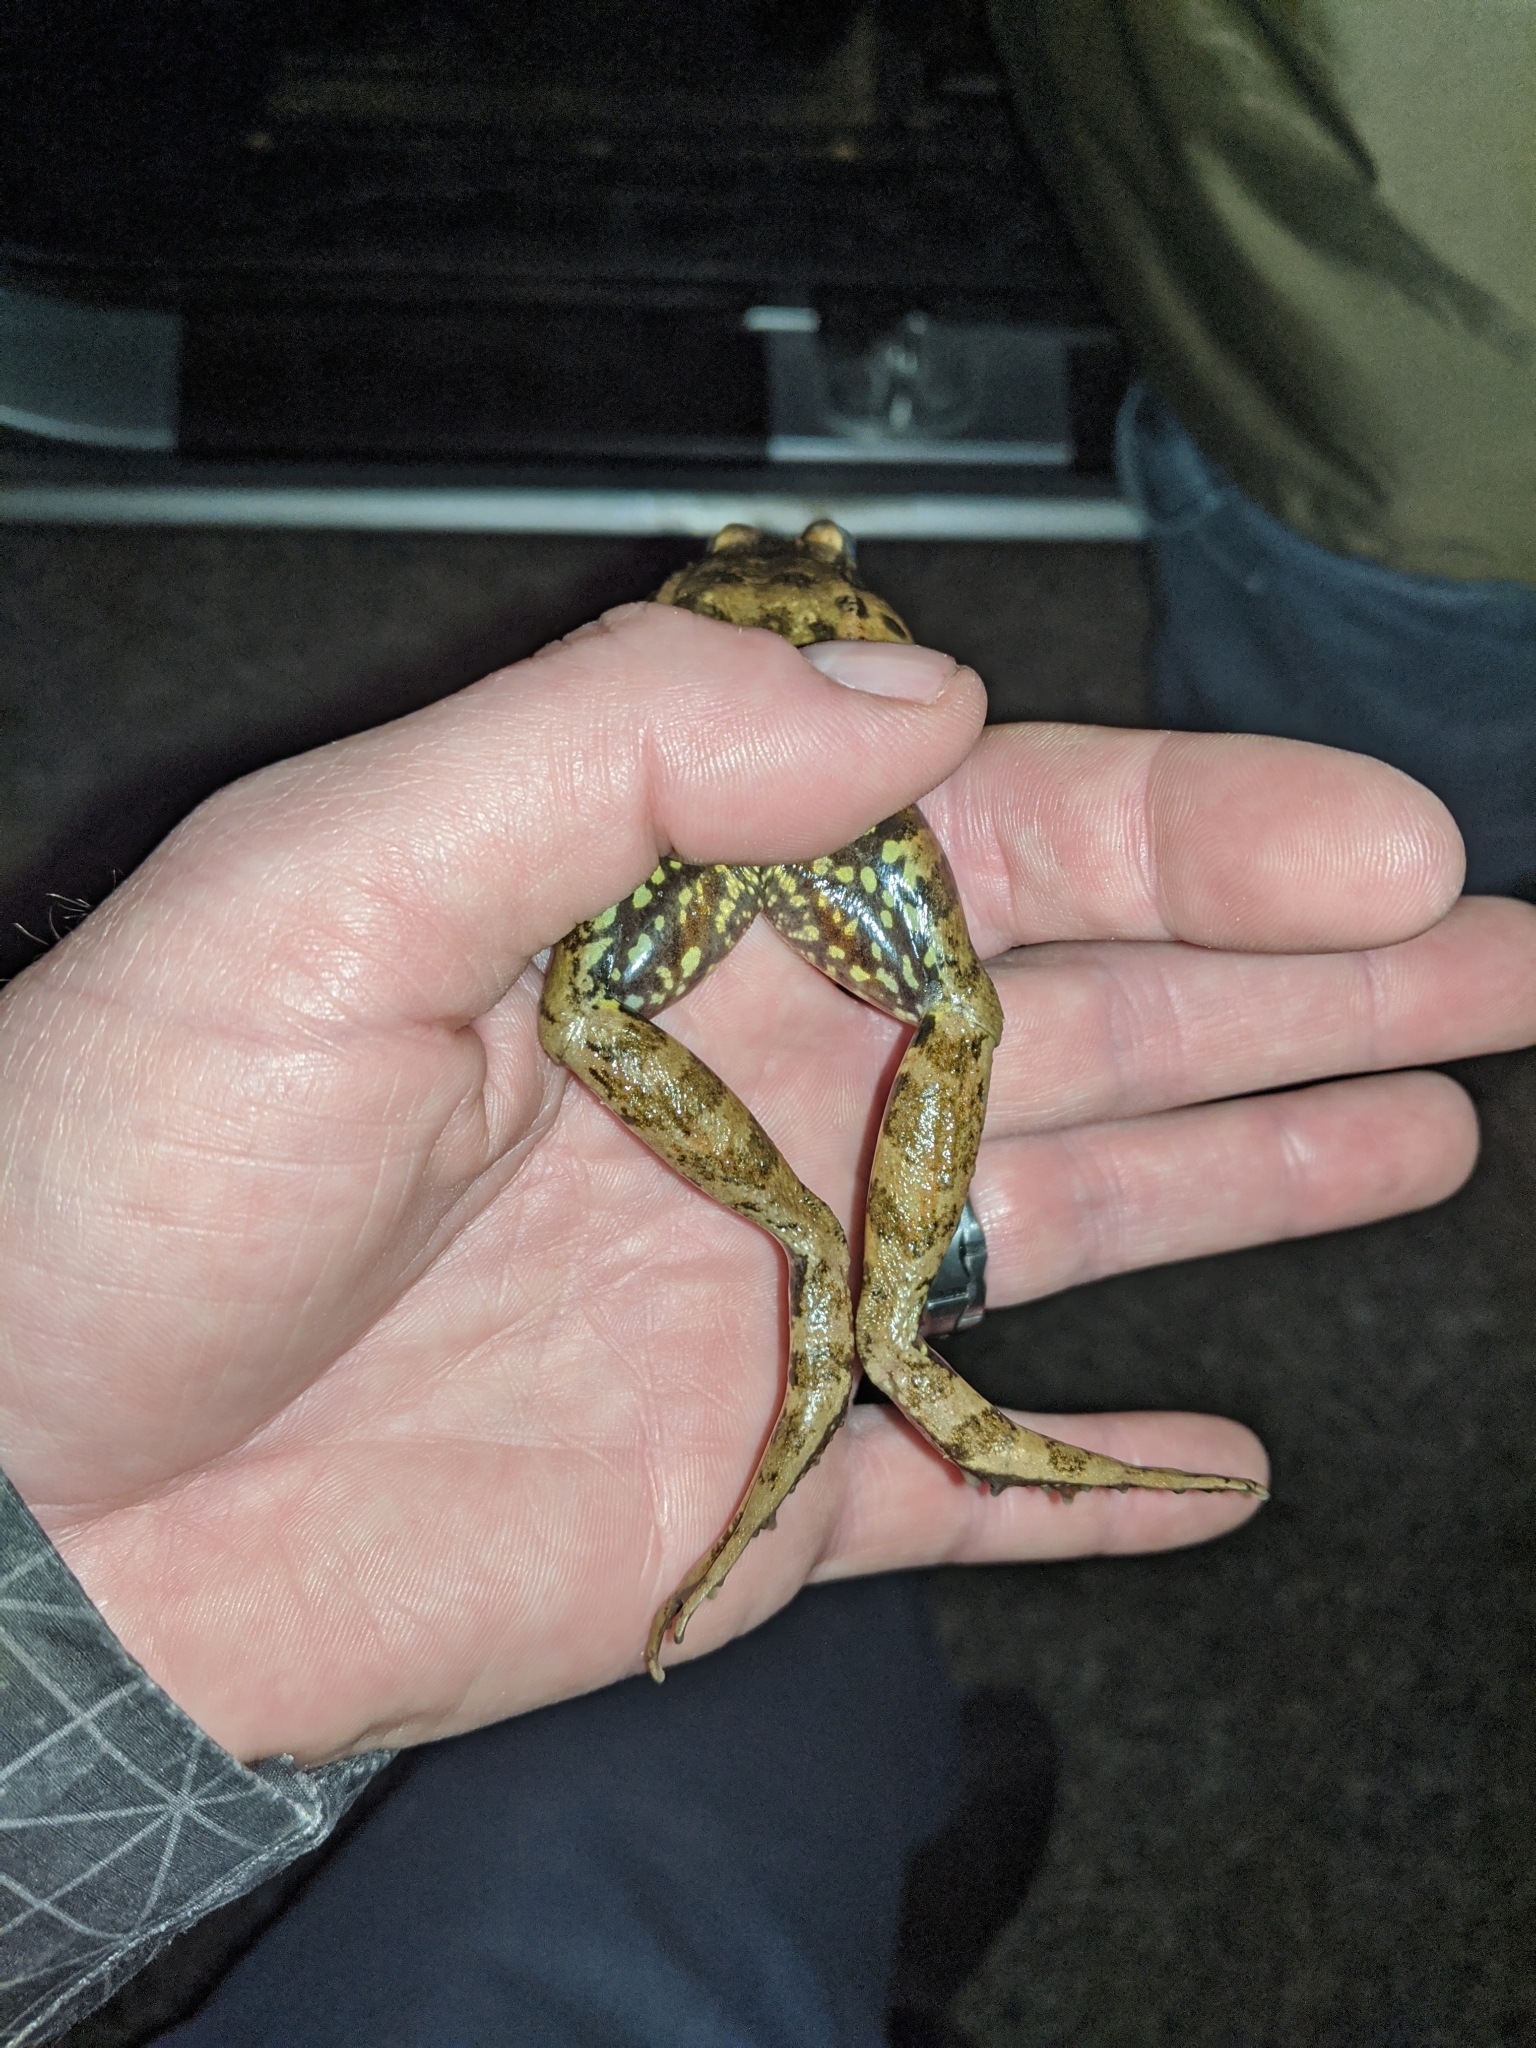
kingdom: Animalia
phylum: Chordata
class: Amphibia
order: Anura
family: Ranidae
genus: Rana
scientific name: Rana draytonii
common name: California red-legged frog
